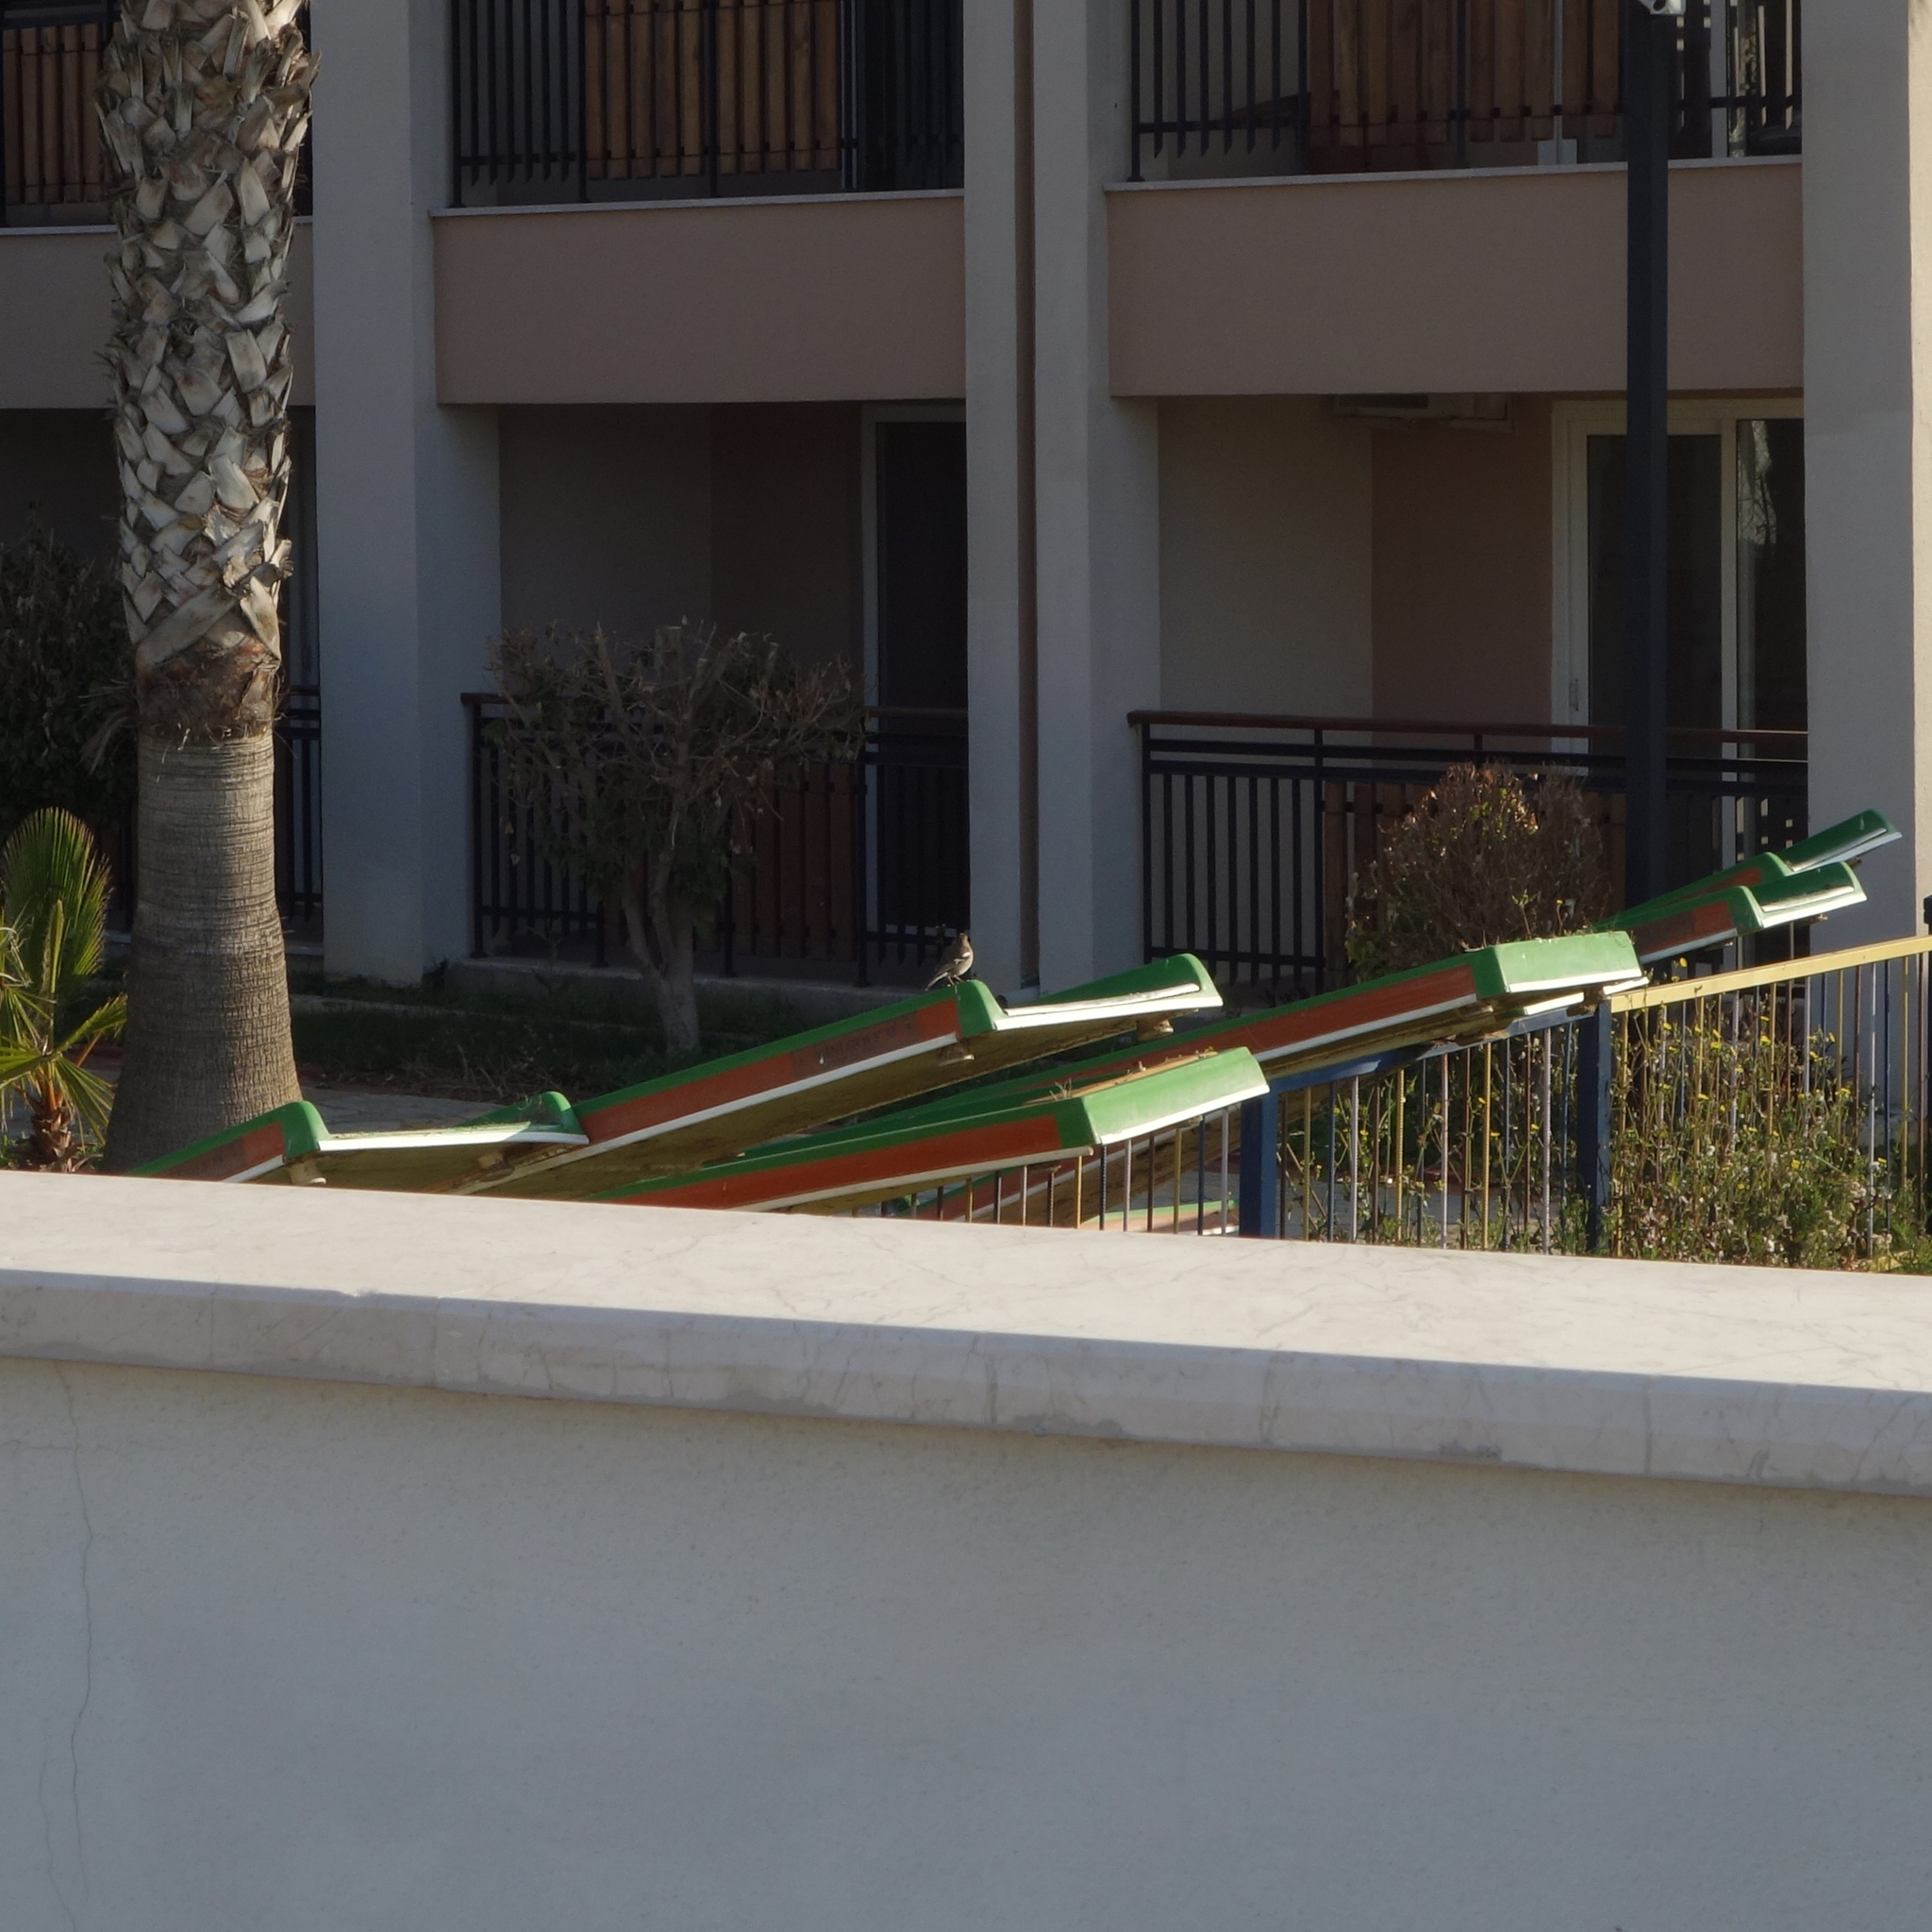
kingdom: Animalia
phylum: Chordata
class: Aves
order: Passeriformes
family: Fringillidae
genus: Fringilla
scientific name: Fringilla coelebs
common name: Common chaffinch
